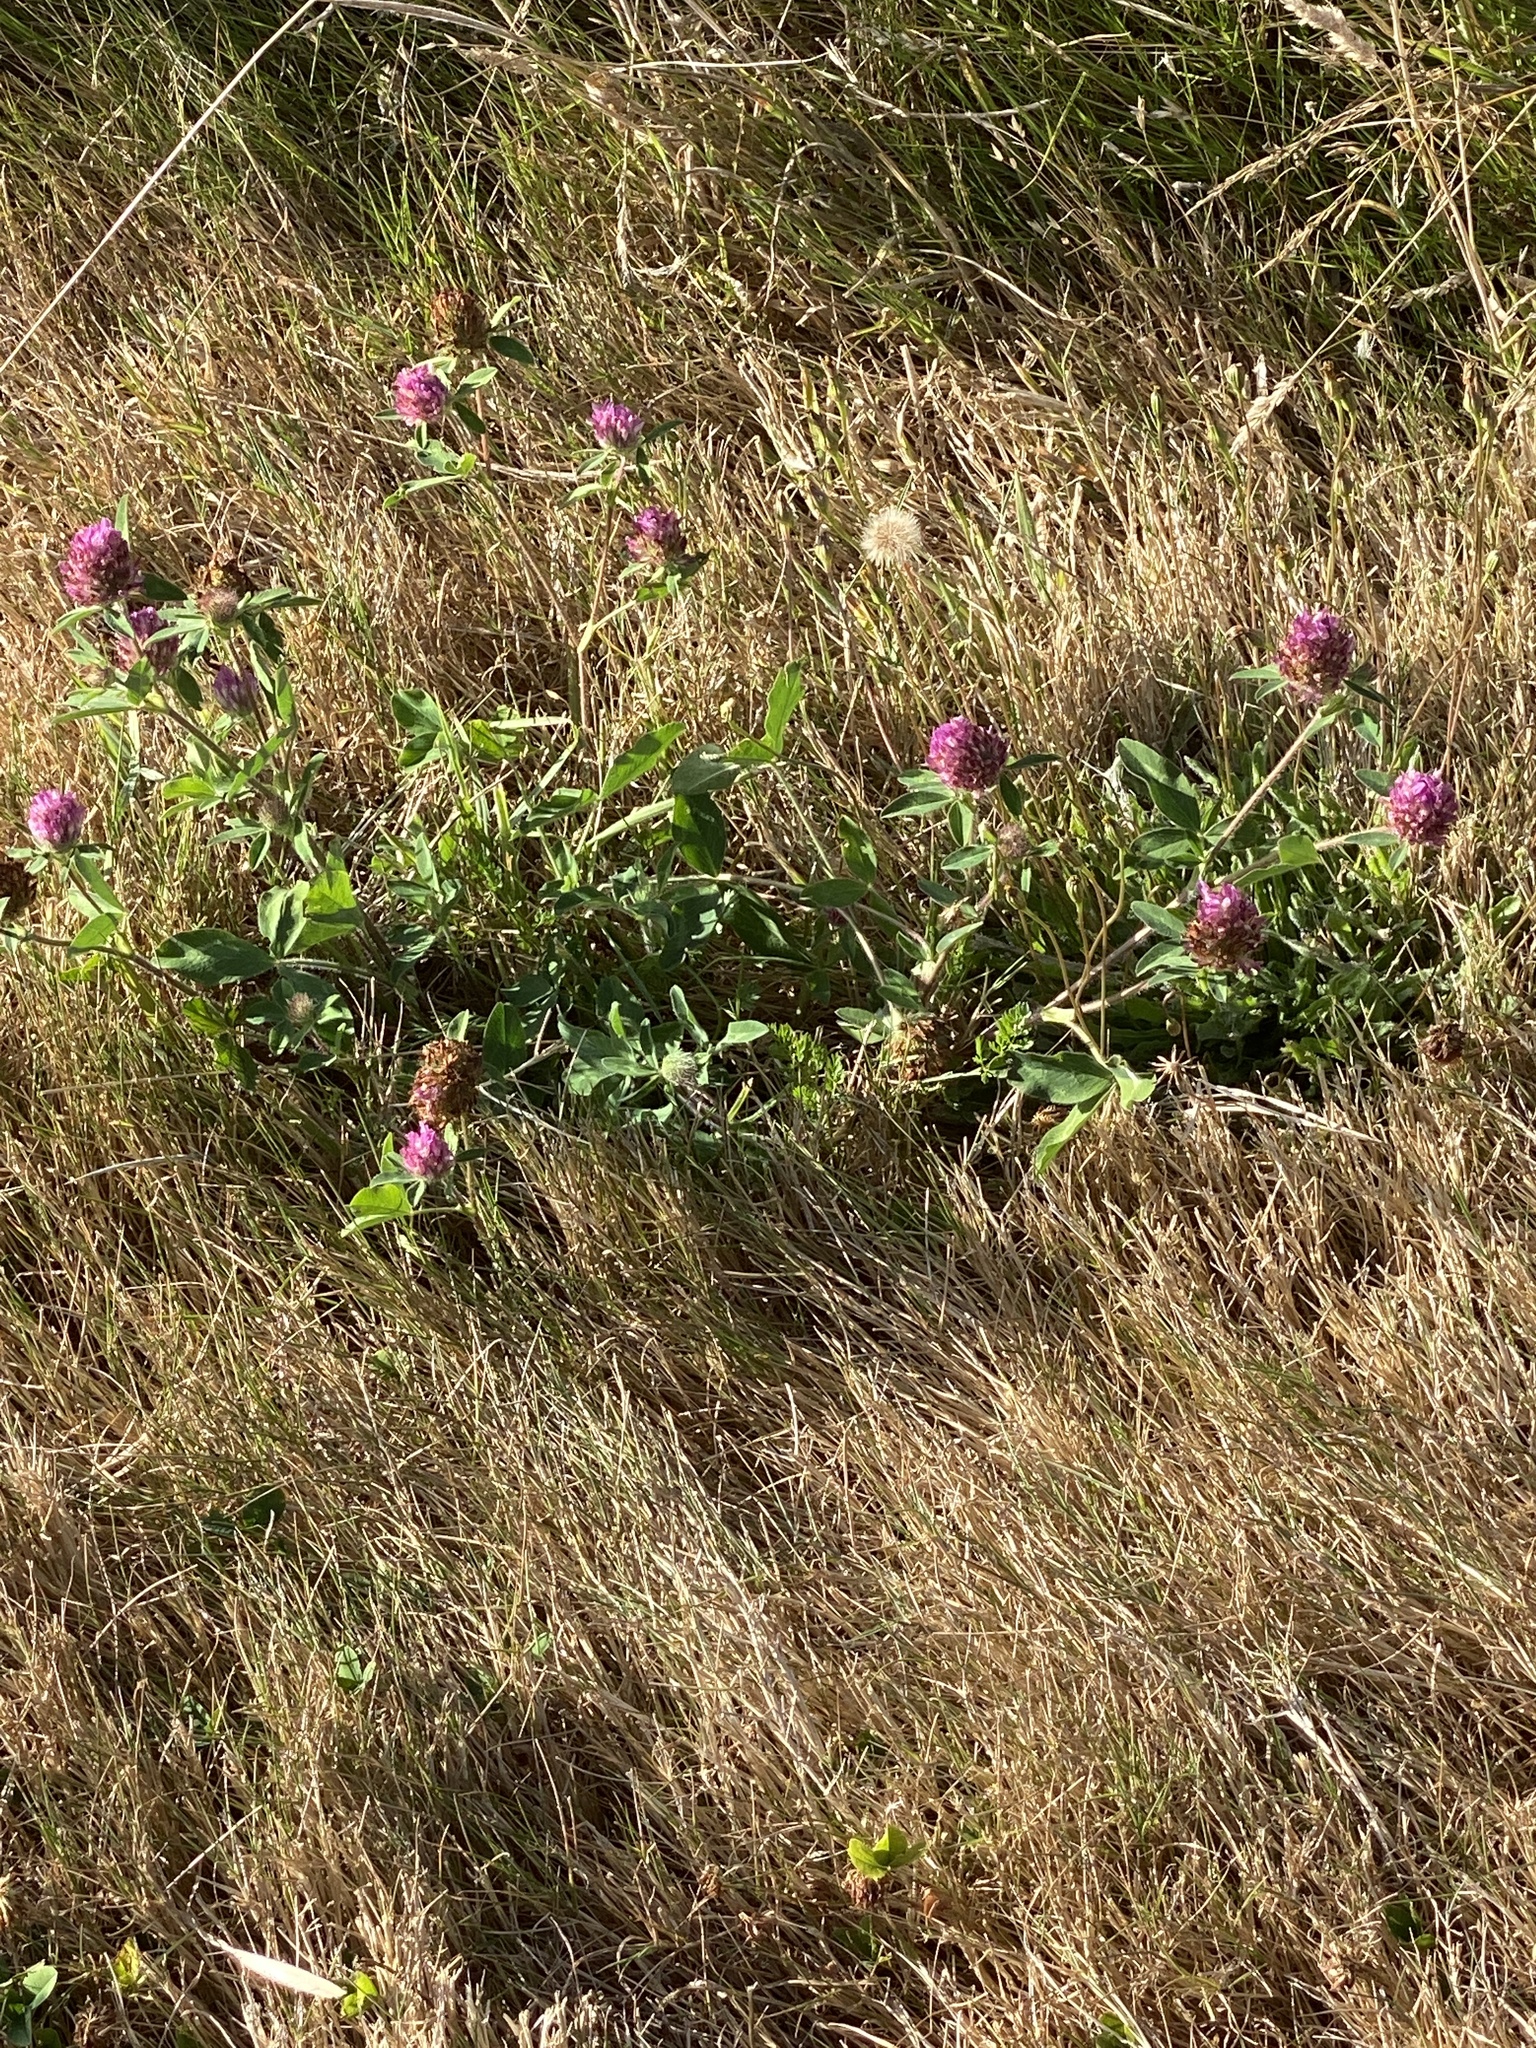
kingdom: Plantae
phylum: Tracheophyta
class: Magnoliopsida
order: Fabales
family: Fabaceae
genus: Trifolium
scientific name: Trifolium pratense
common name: Red clover
